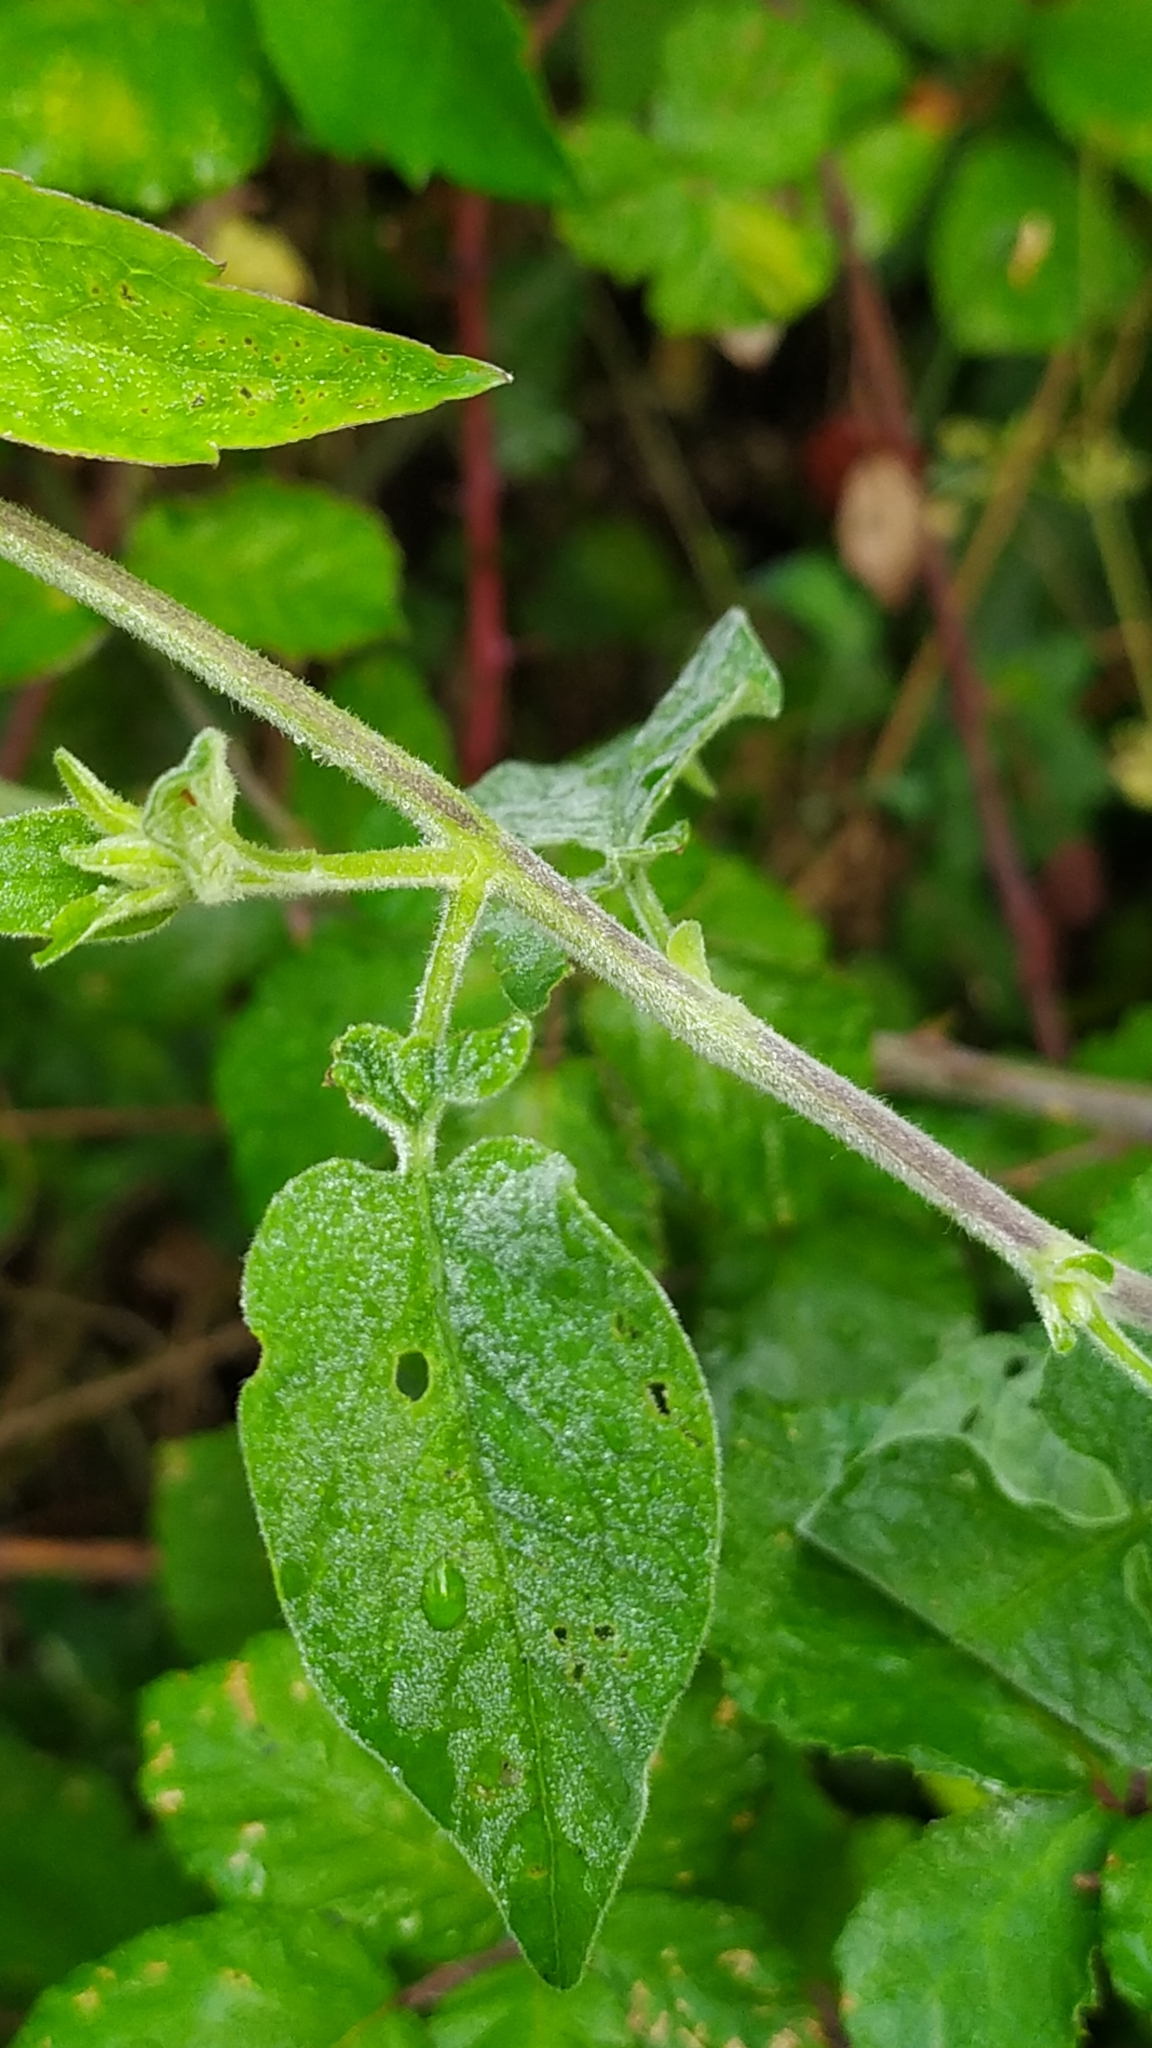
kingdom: Plantae
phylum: Tracheophyta
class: Magnoliopsida
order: Solanales
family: Solanaceae
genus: Solanum
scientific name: Solanum dulcamara
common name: Climbing nightshade
